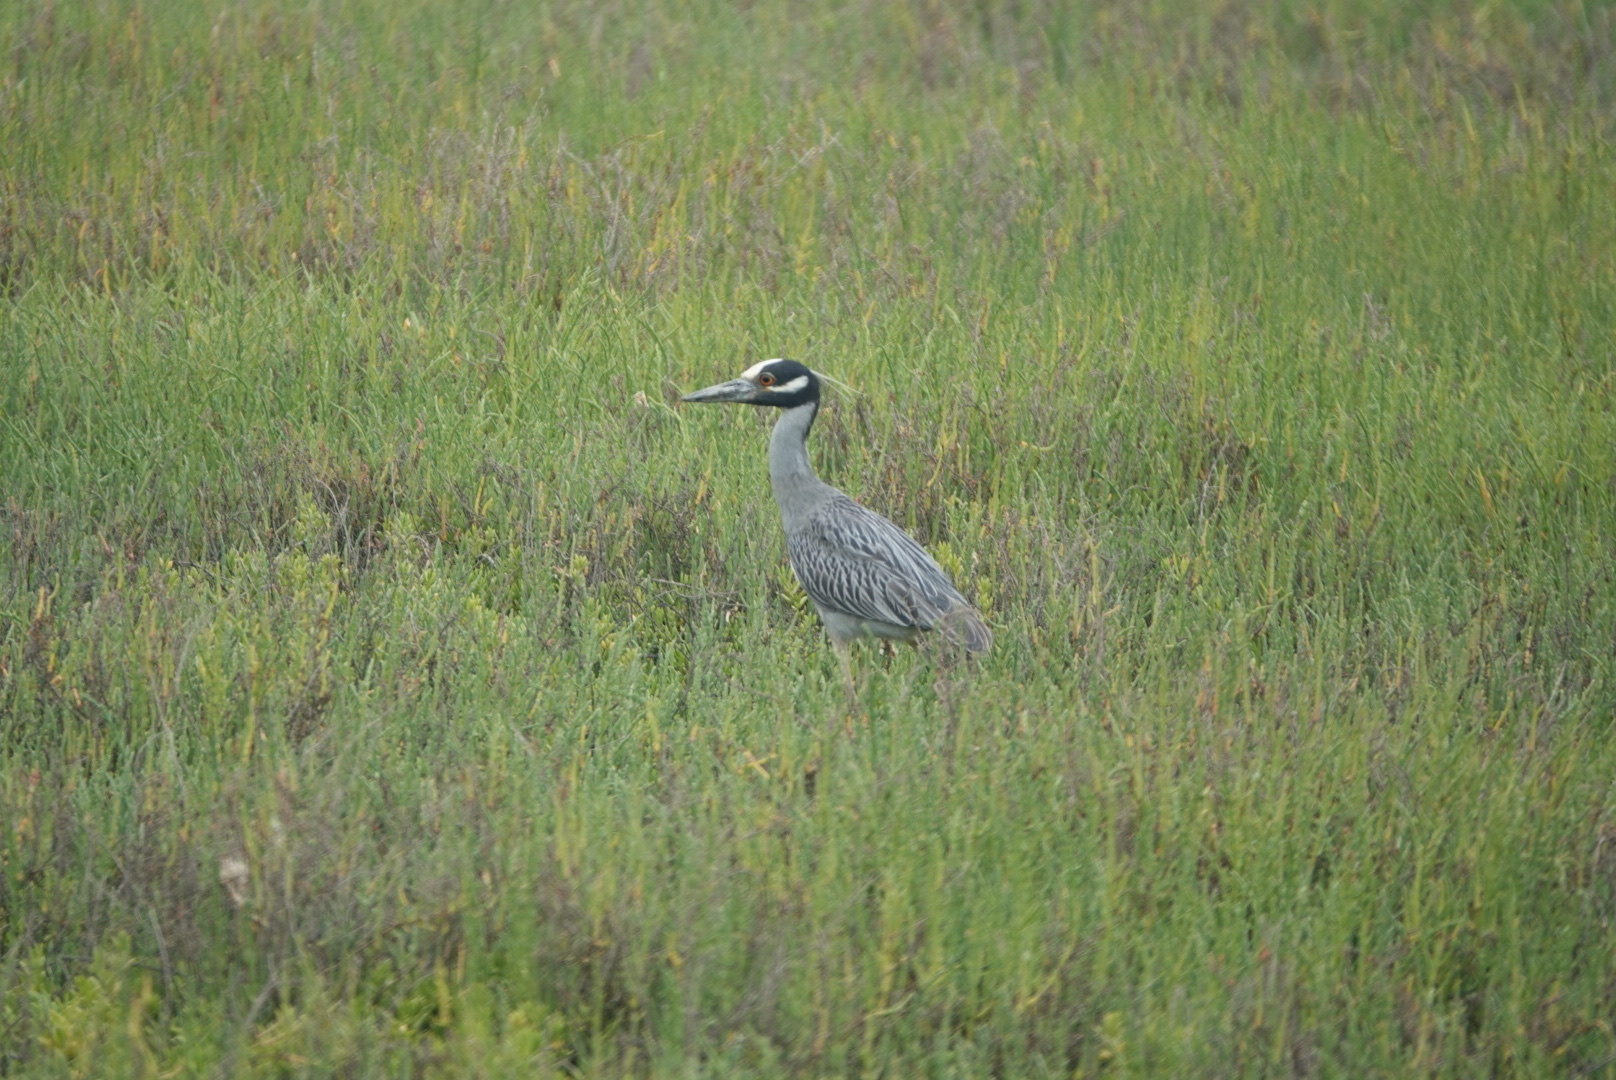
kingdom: Animalia
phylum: Chordata
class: Aves
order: Pelecaniformes
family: Ardeidae
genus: Nyctanassa
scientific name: Nyctanassa violacea
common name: Yellow-crowned night heron
